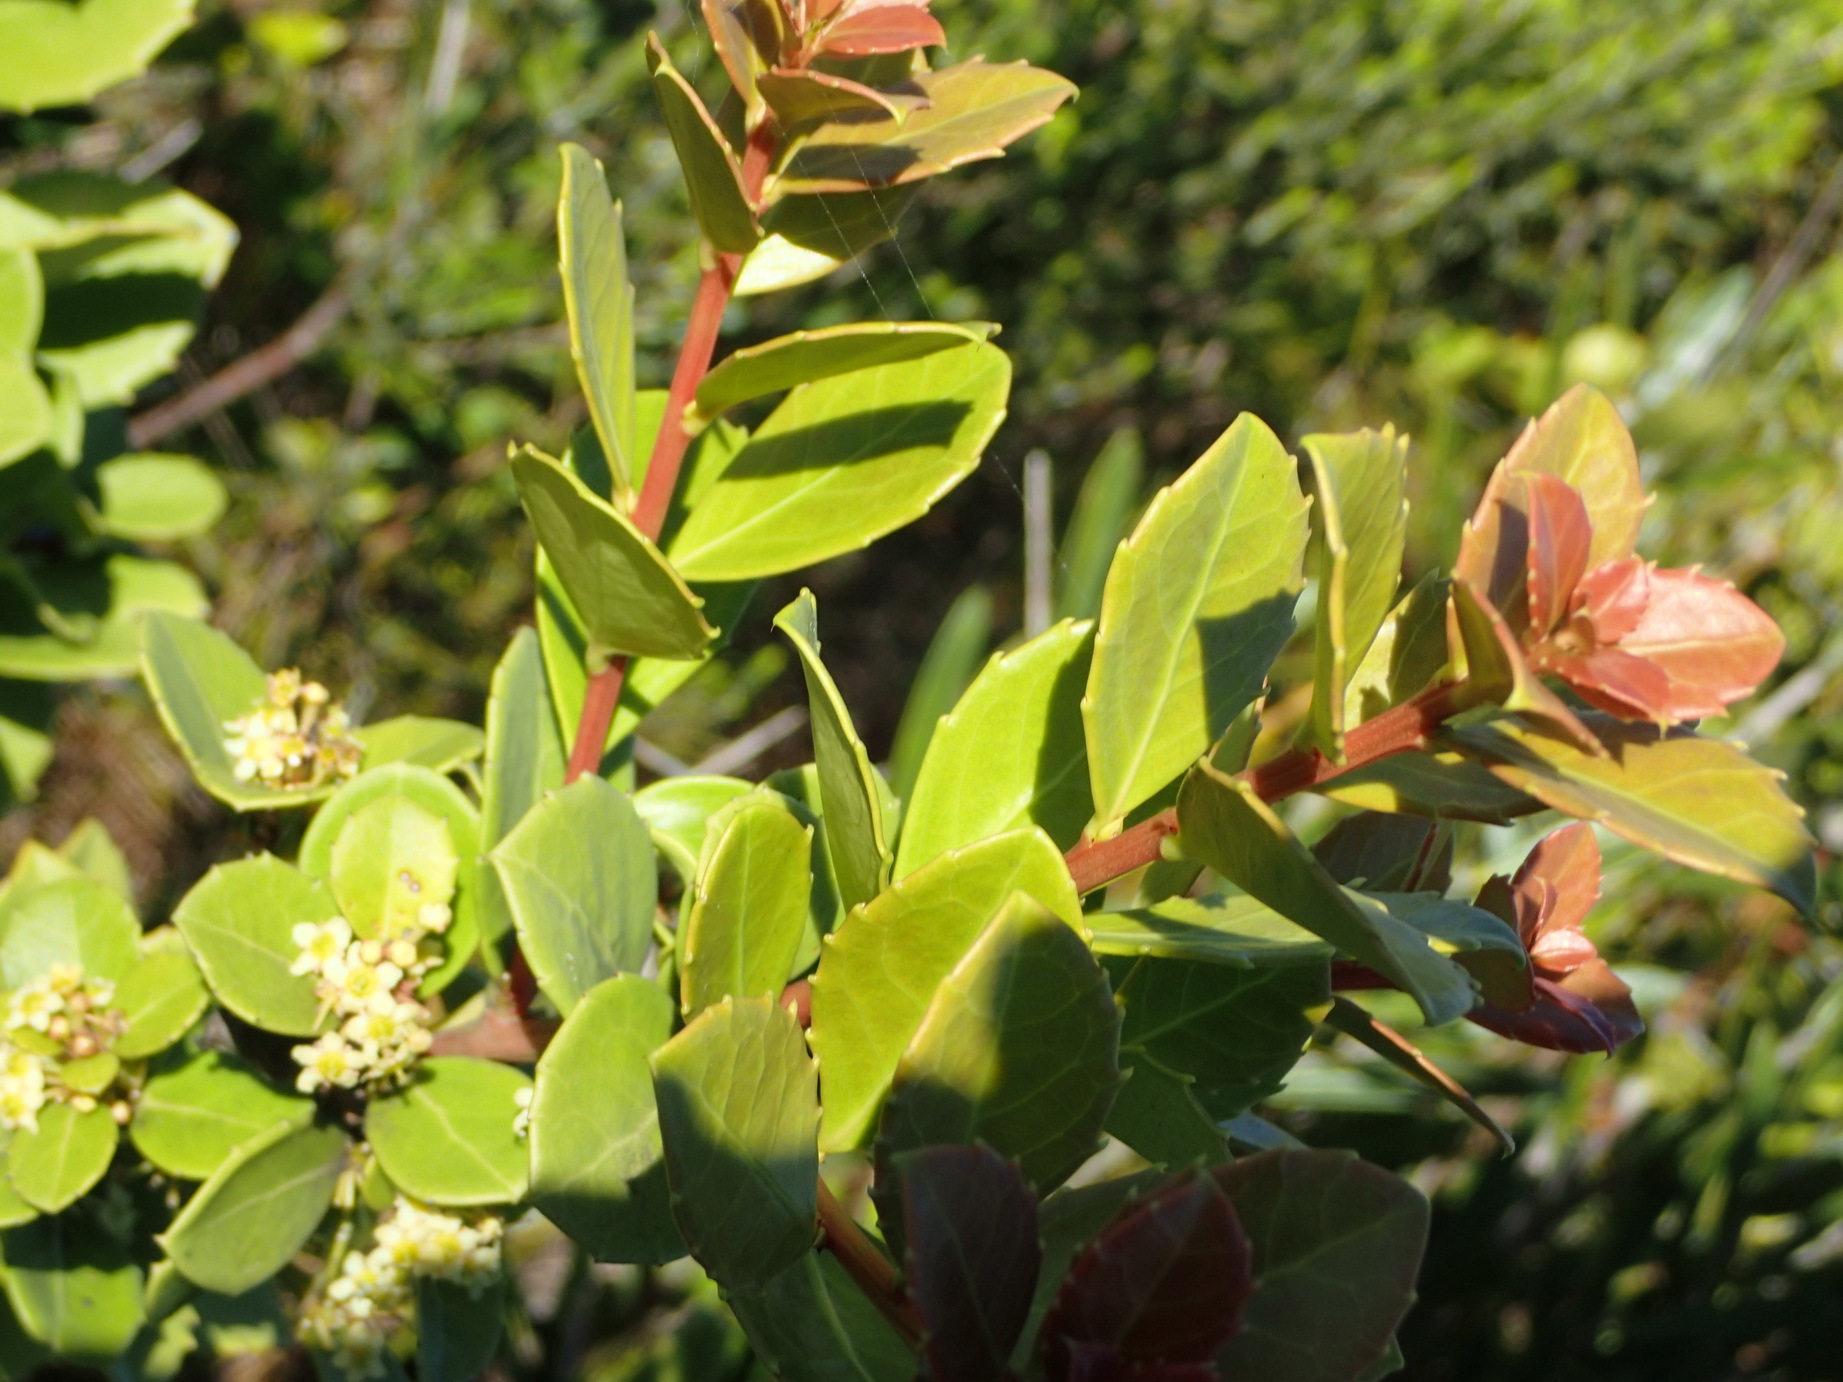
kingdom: Plantae
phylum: Tracheophyta
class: Magnoliopsida
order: Celastrales
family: Celastraceae
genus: Gymnosporia
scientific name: Gymnosporia procumbens
